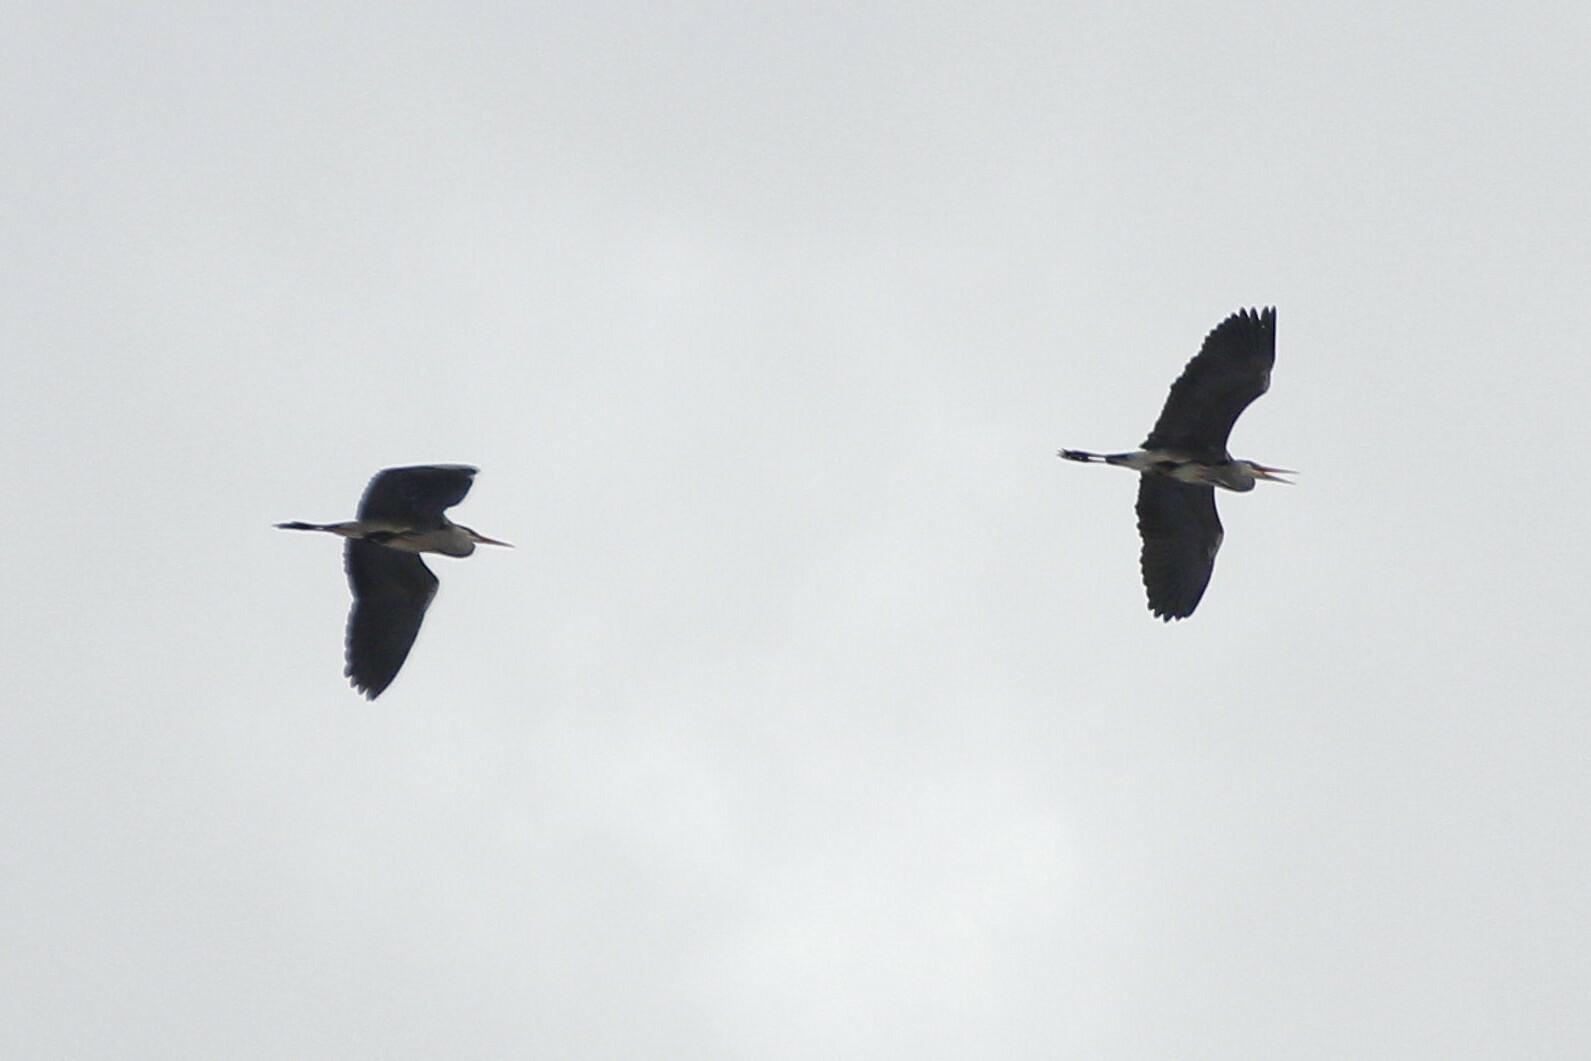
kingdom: Animalia
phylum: Chordata
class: Aves
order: Pelecaniformes
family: Ardeidae
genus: Ardea
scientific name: Ardea cinerea
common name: Grey heron
